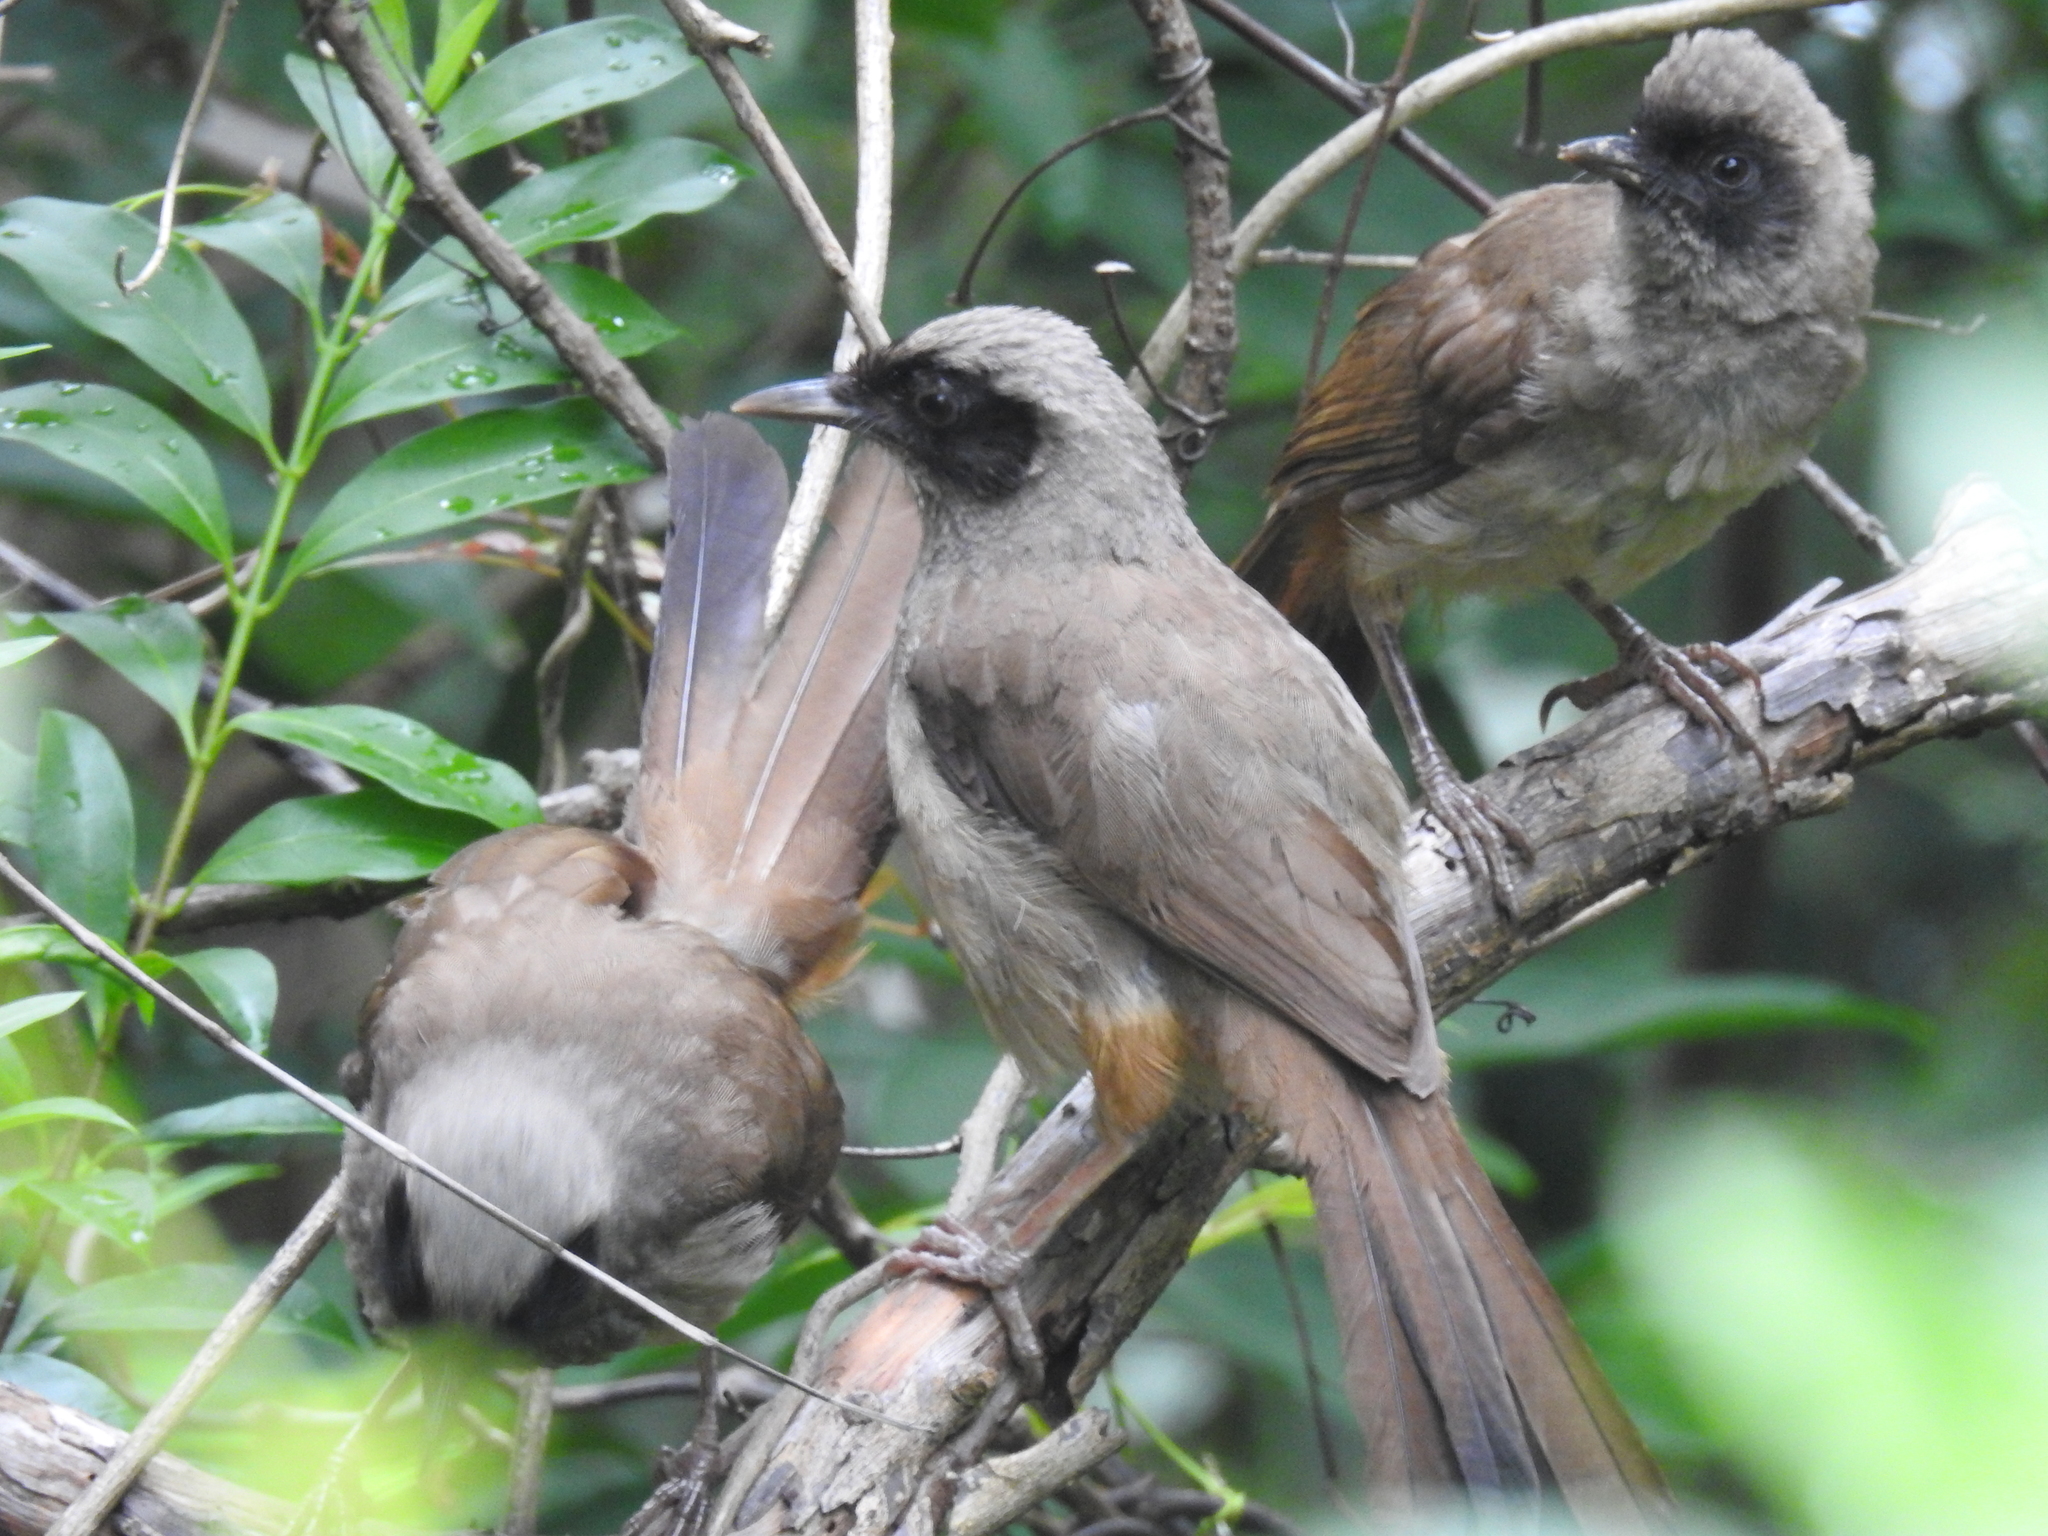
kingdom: Animalia
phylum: Chordata
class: Aves
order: Passeriformes
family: Leiothrichidae
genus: Garrulax
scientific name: Garrulax perspicillatus
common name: Masked laughingthrush
